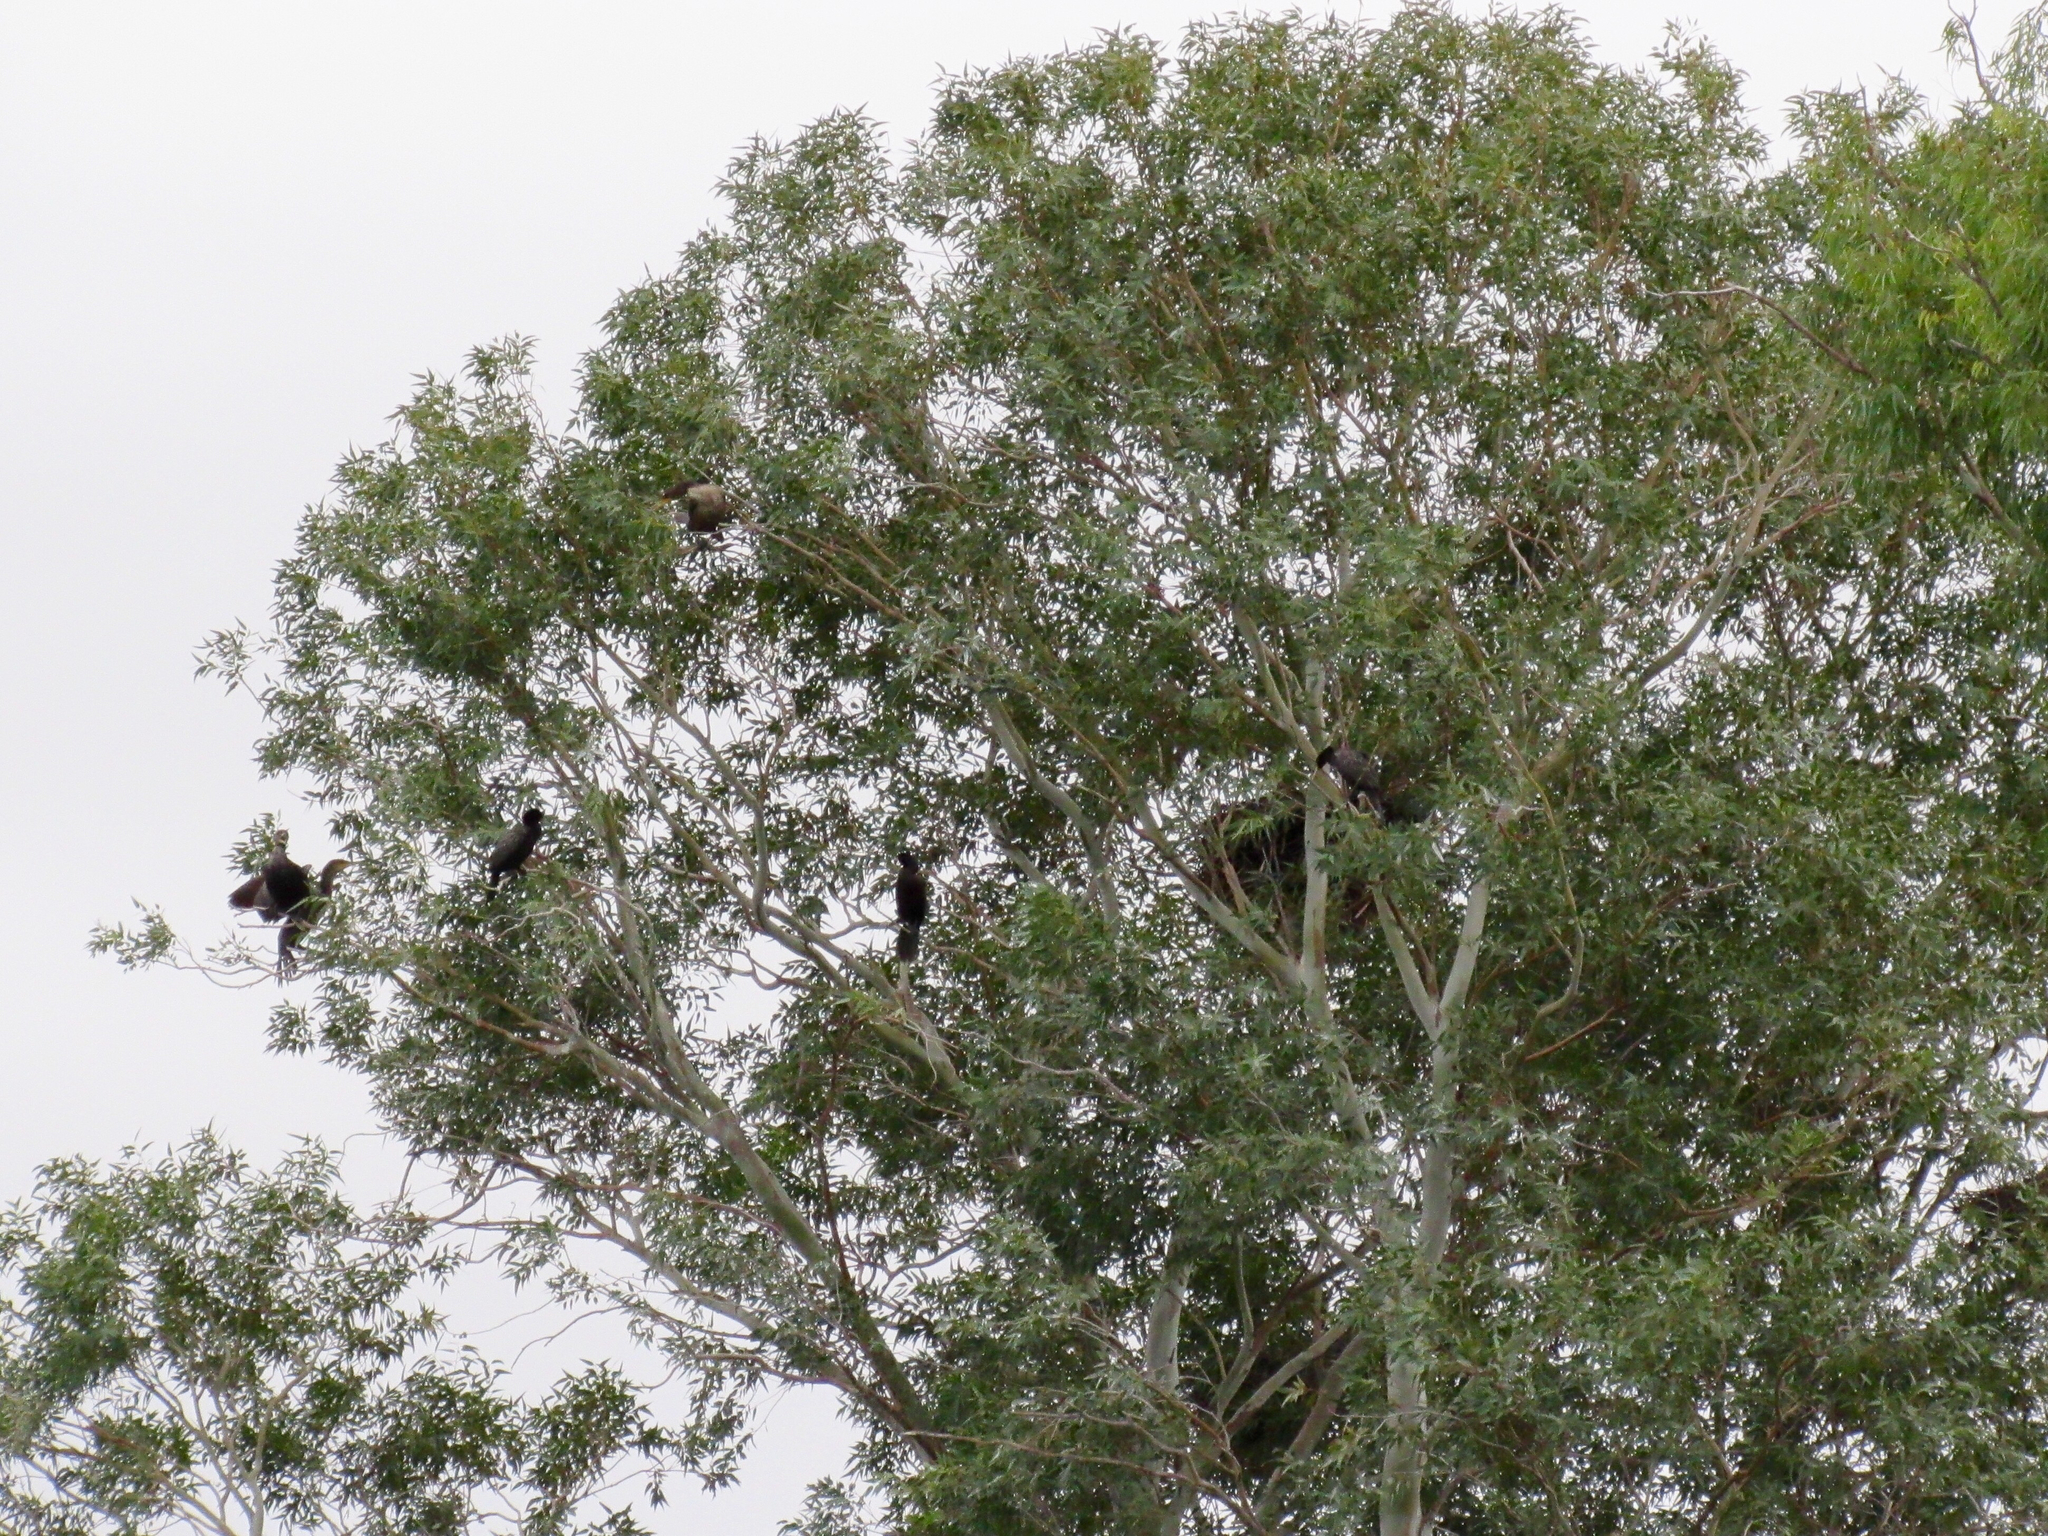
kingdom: Animalia
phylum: Chordata
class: Aves
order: Suliformes
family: Phalacrocoracidae
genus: Phalacrocorax
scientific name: Phalacrocorax brasilianus
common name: Neotropic cormorant
